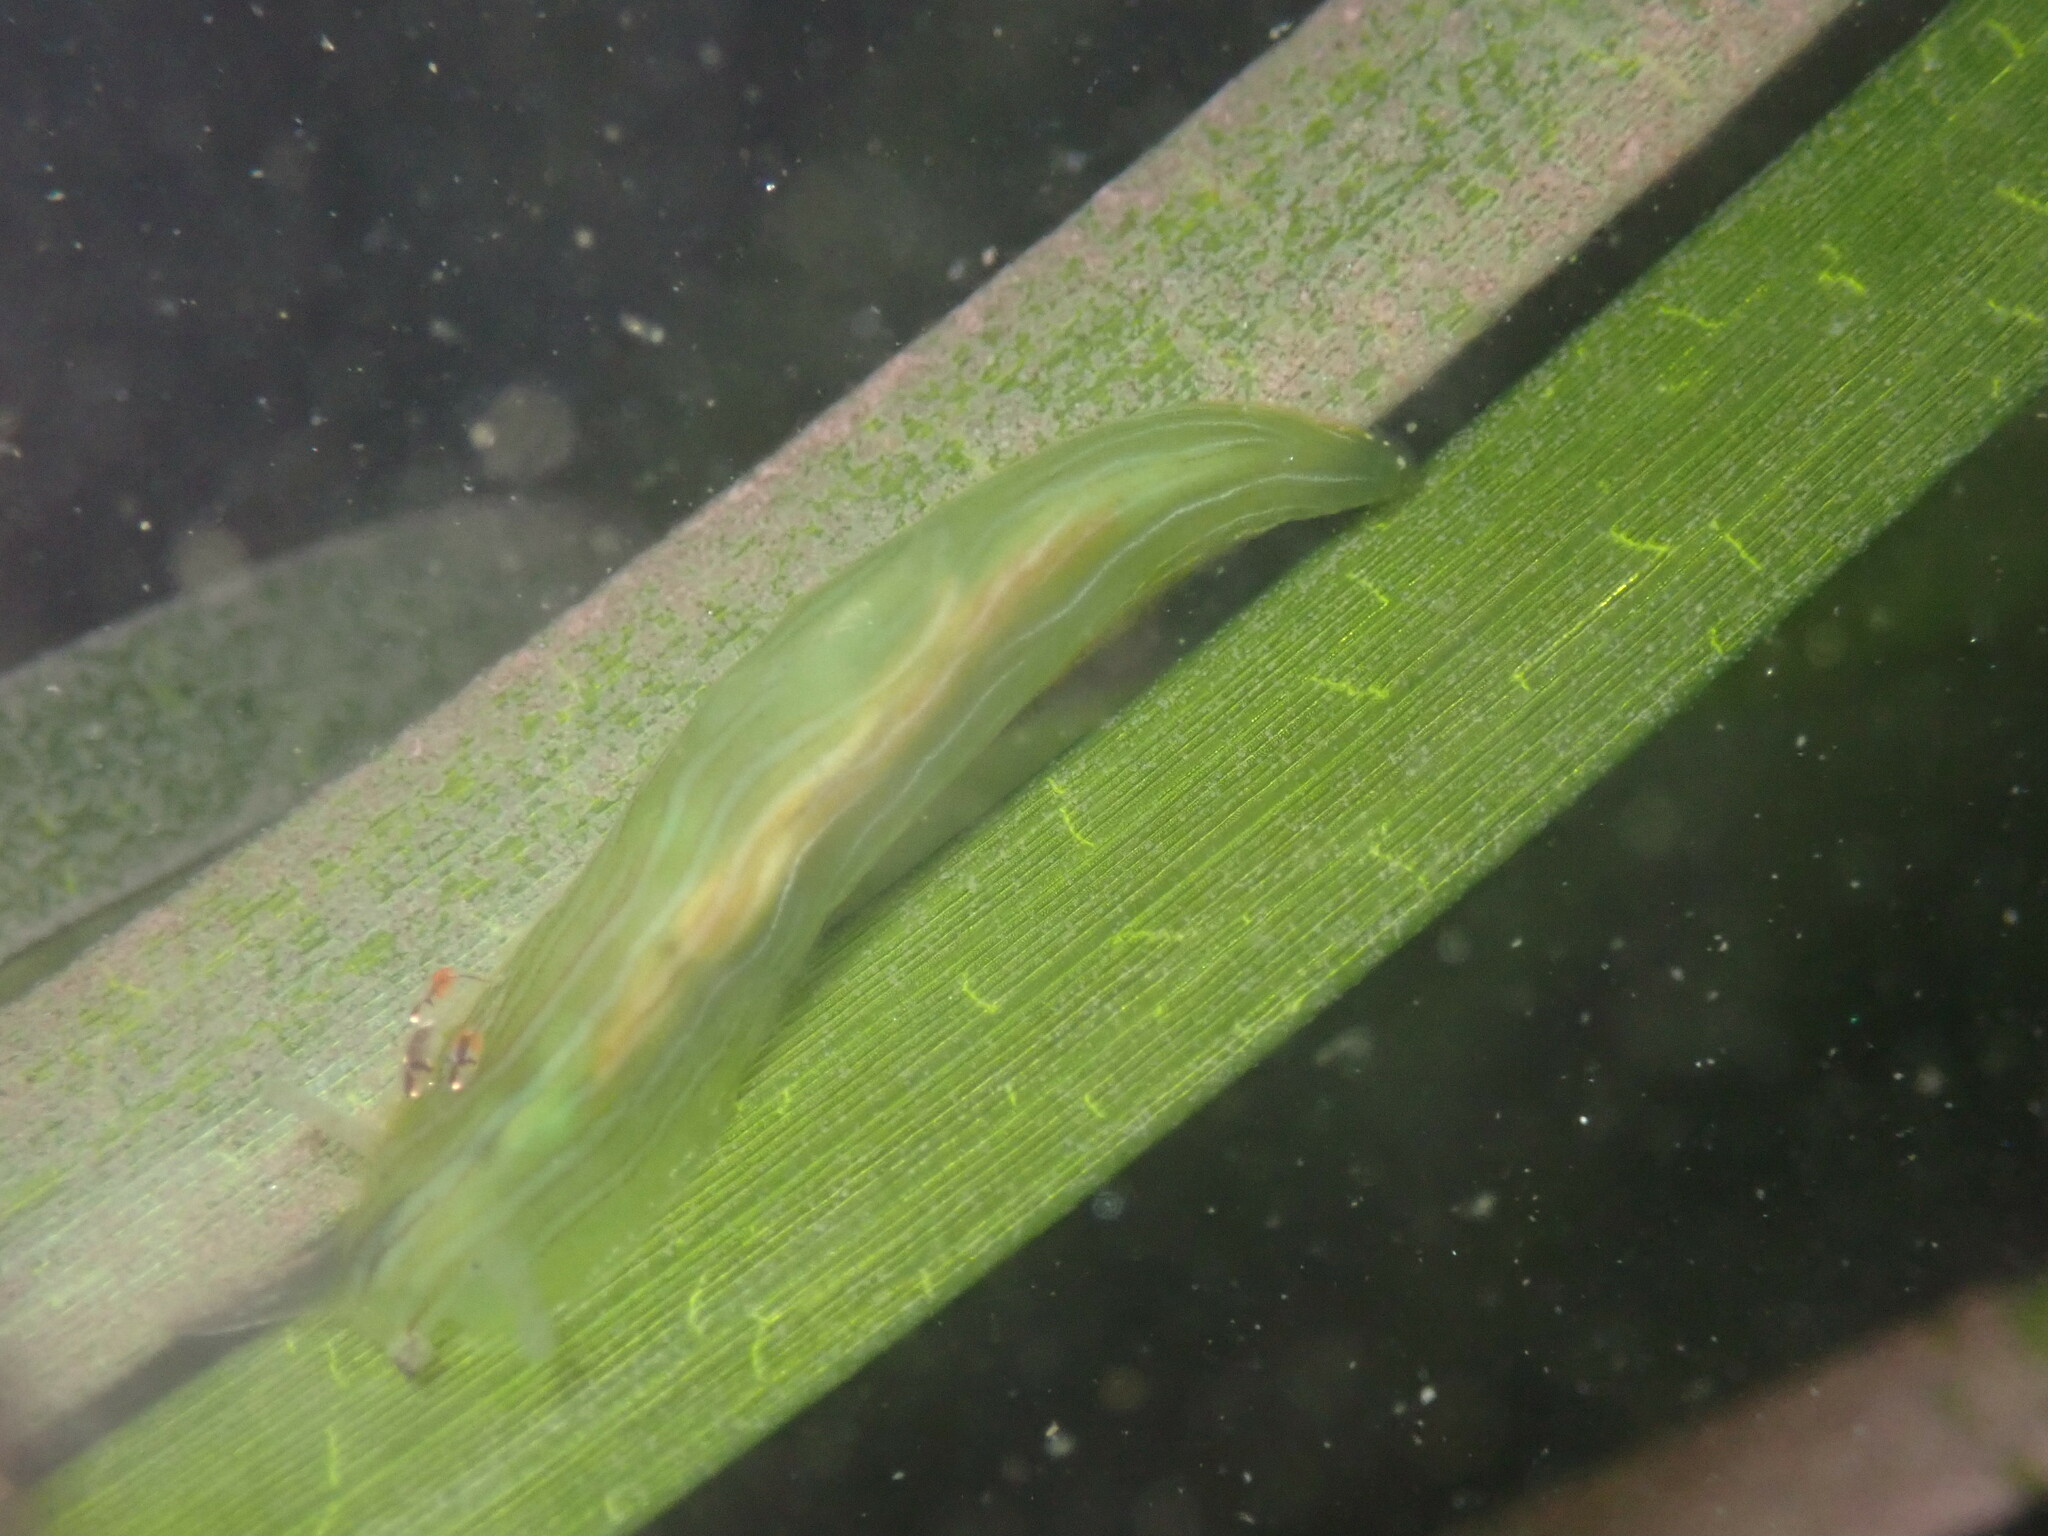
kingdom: Animalia
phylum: Mollusca
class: Gastropoda
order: Aplysiida
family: Aplysiidae
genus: Phyllaplysia
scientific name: Phyllaplysia taylori
